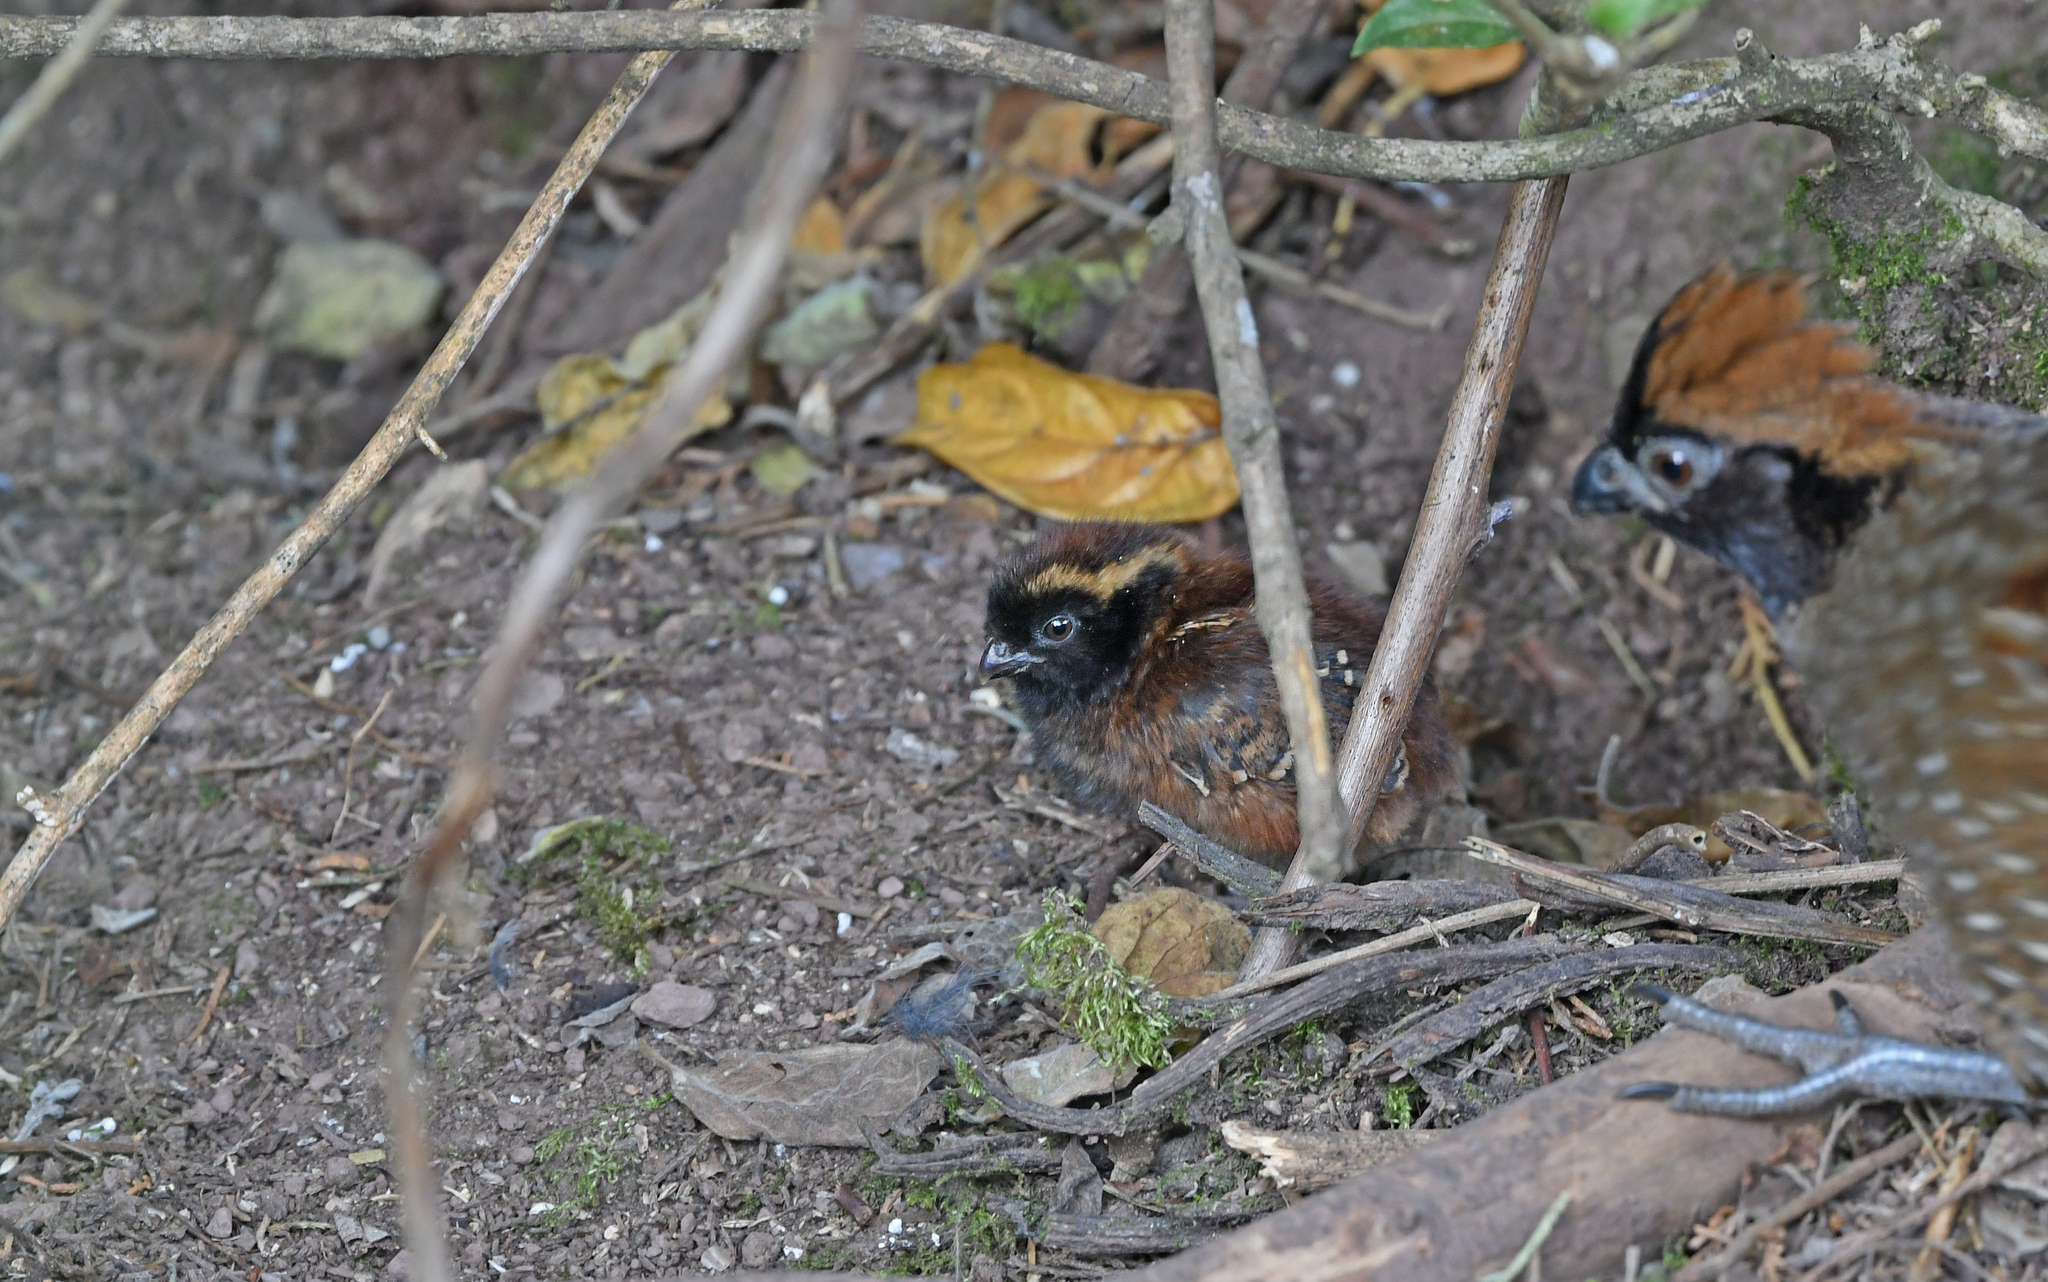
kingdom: Animalia
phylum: Chordata
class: Aves
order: Galliformes
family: Odontophoridae
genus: Odontophorus
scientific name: Odontophorus atrifrons
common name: Black-fronted wood-quail
